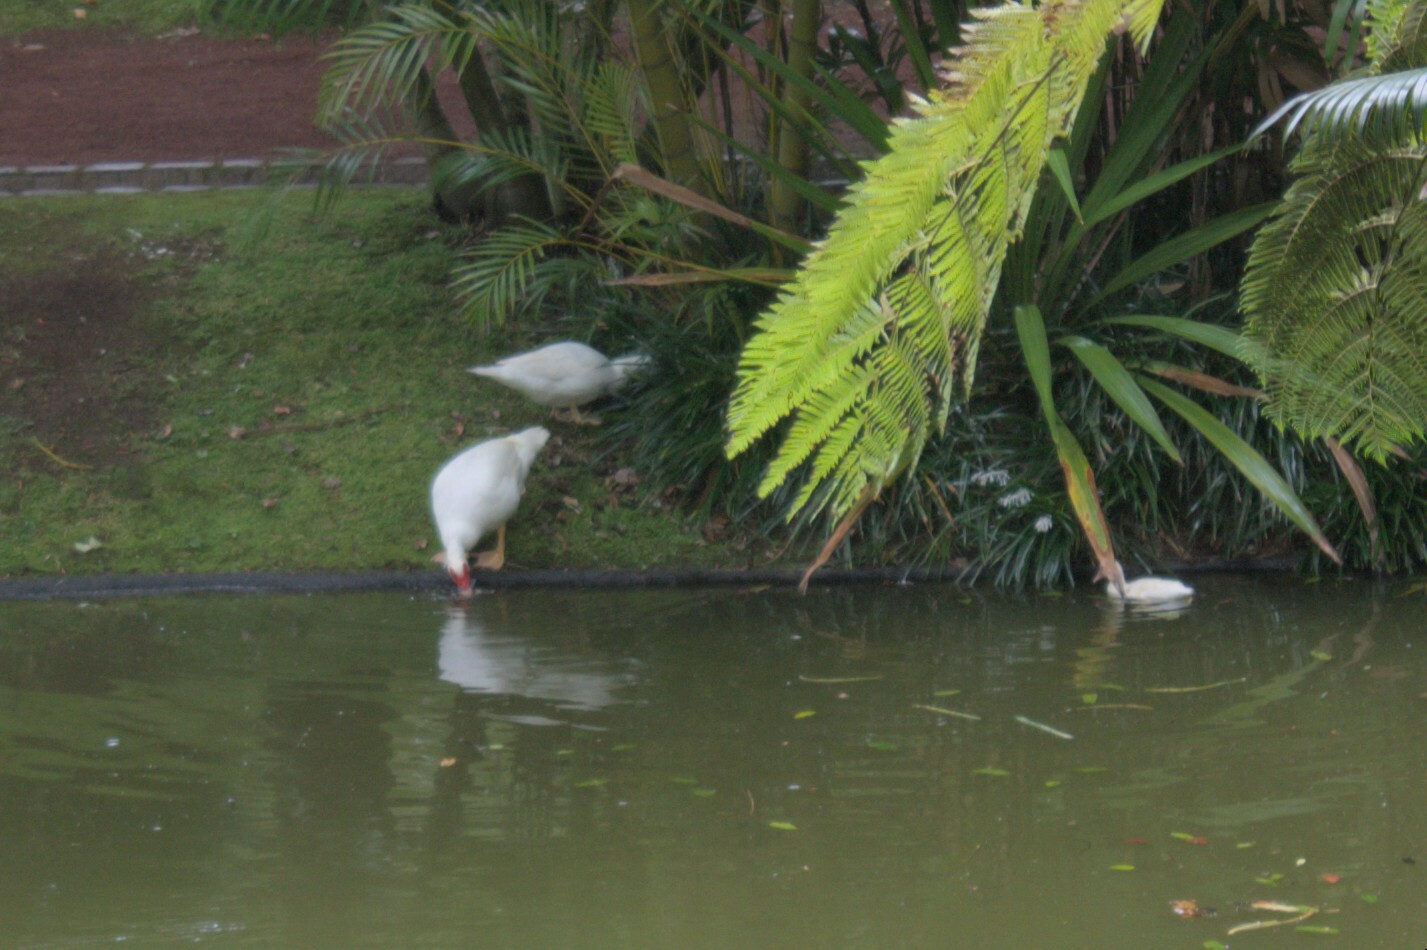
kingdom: Animalia
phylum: Chordata
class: Aves
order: Anseriformes
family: Anatidae
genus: Cairina
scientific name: Cairina moschata
